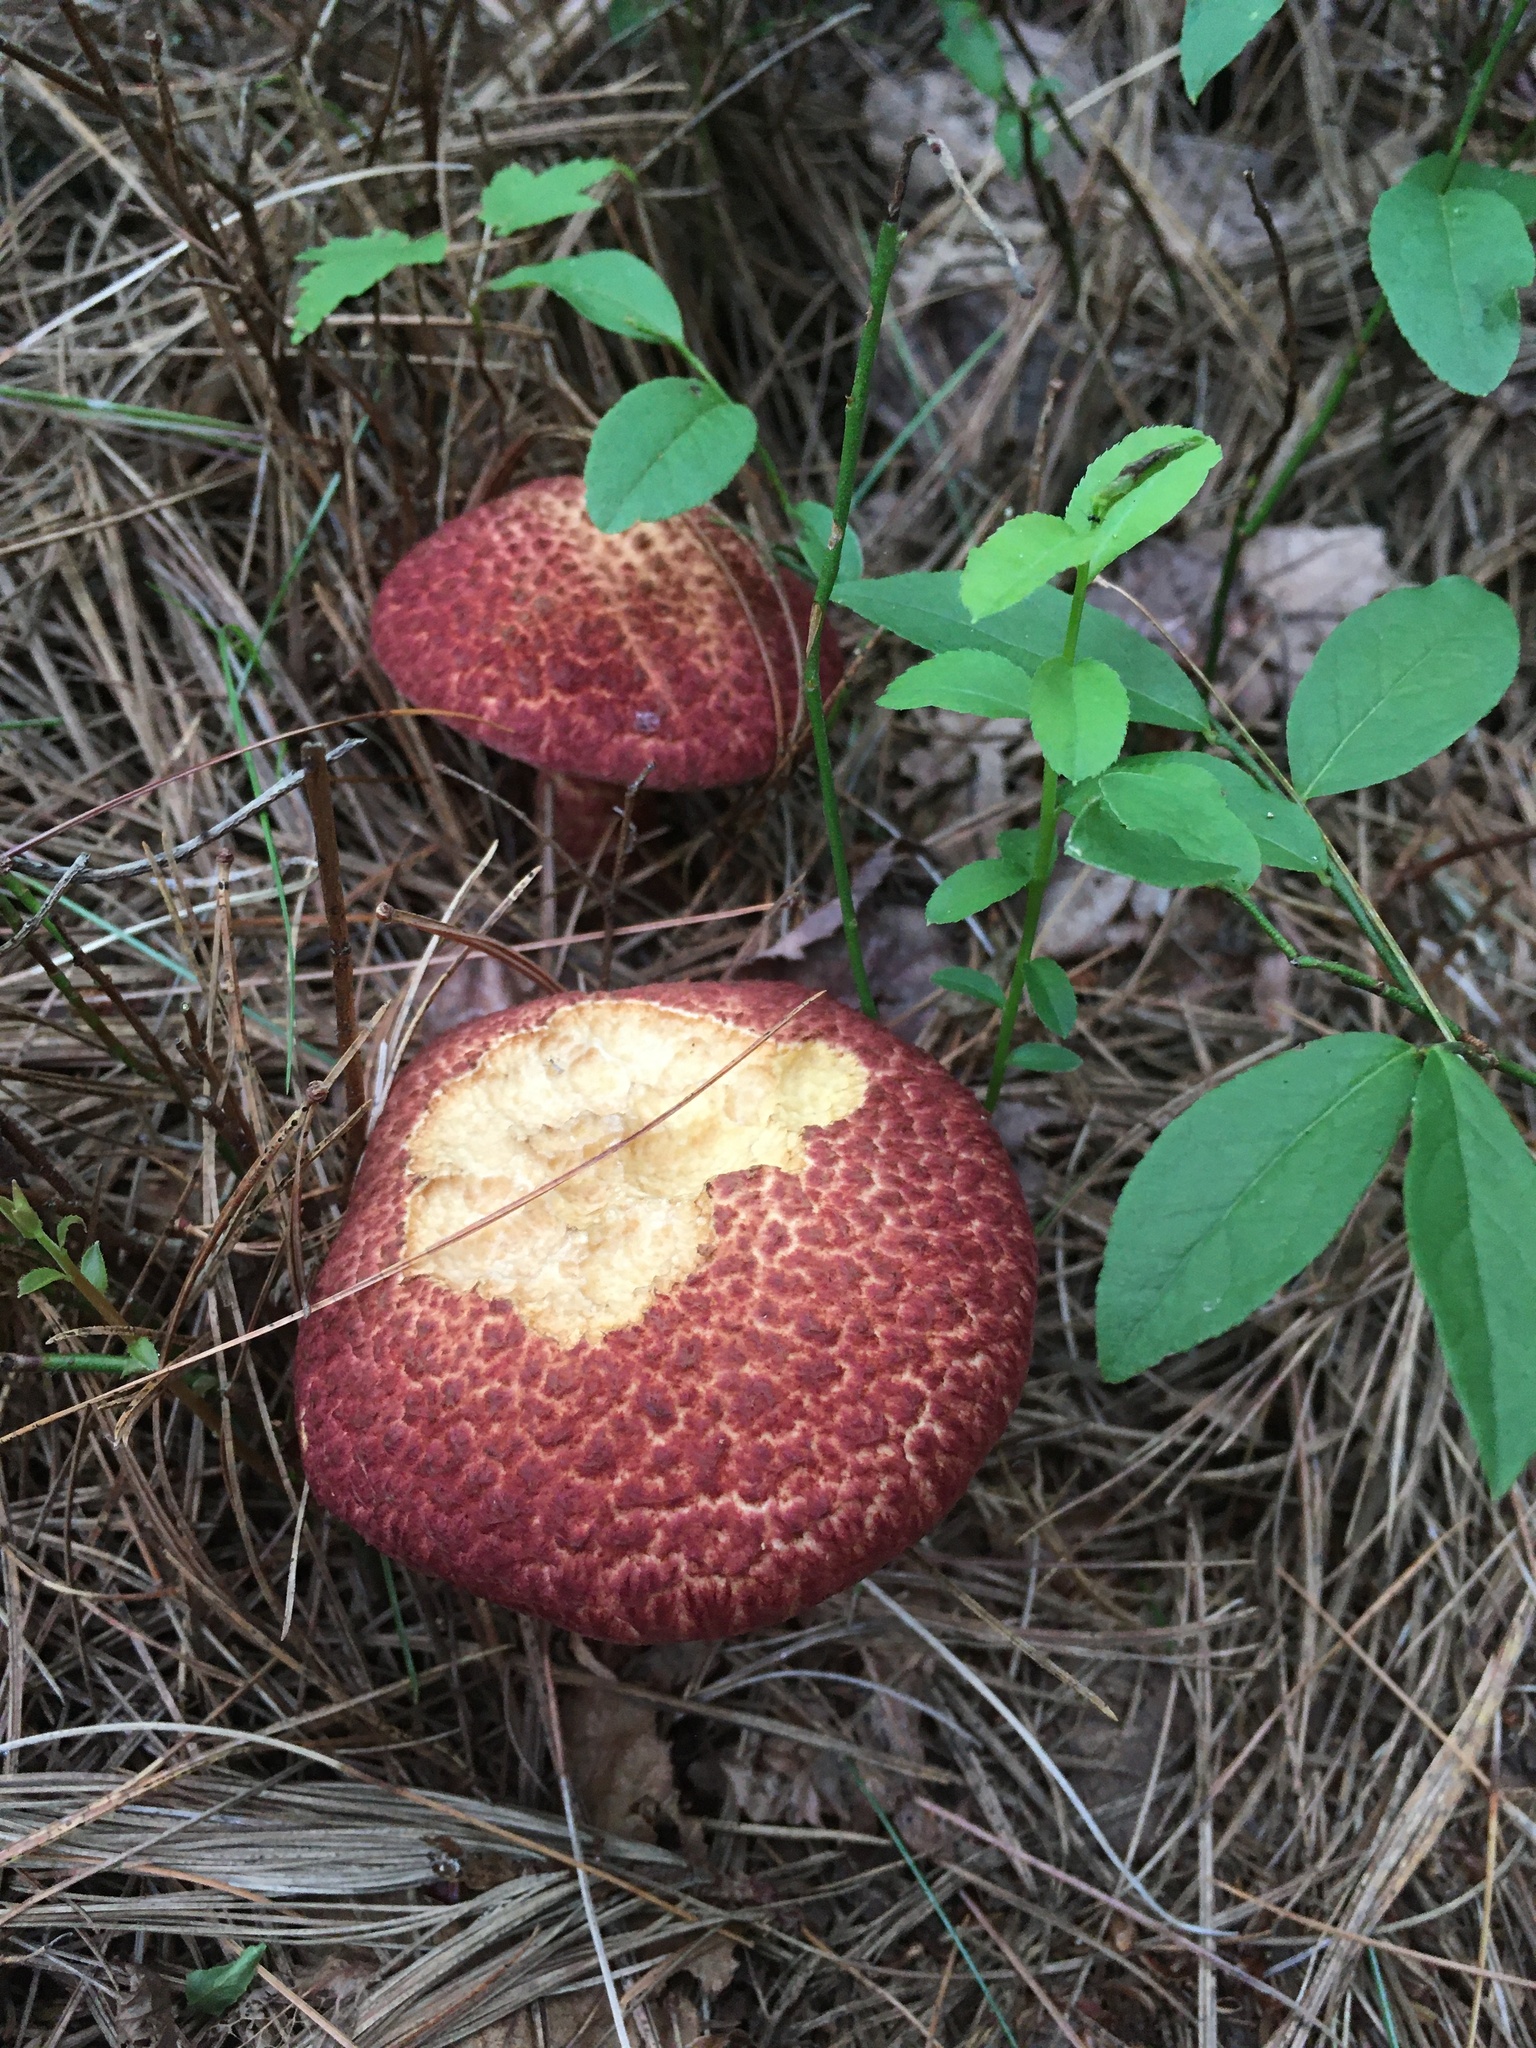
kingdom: Fungi
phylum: Basidiomycota
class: Agaricomycetes
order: Boletales
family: Suillaceae
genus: Suillus
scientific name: Suillus spraguei
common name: Painted suillus
